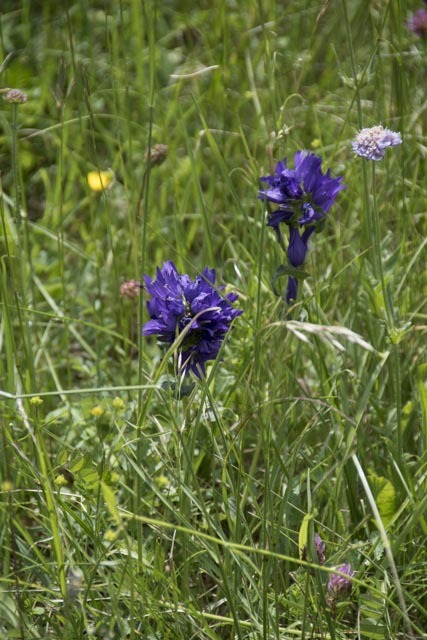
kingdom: Plantae
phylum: Tracheophyta
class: Magnoliopsida
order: Asterales
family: Campanulaceae
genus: Campanula
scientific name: Campanula glomerata
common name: Clustered bellflower
